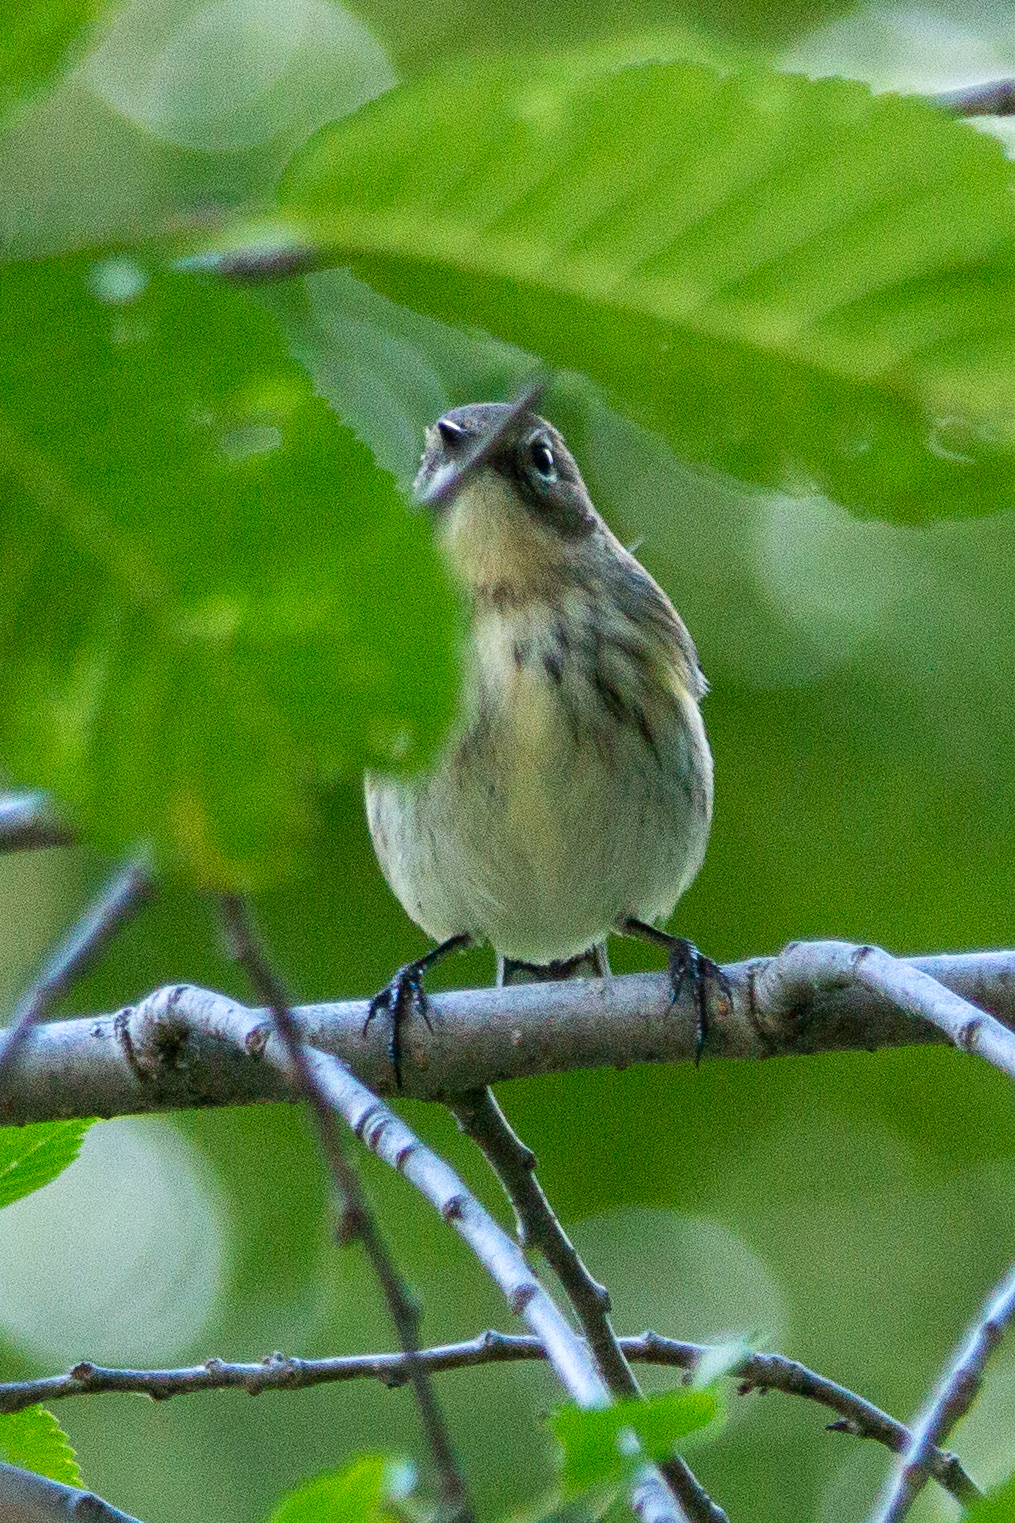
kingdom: Animalia
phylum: Chordata
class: Aves
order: Passeriformes
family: Parulidae
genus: Setophaga
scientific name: Setophaga coronata
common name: Myrtle warbler
